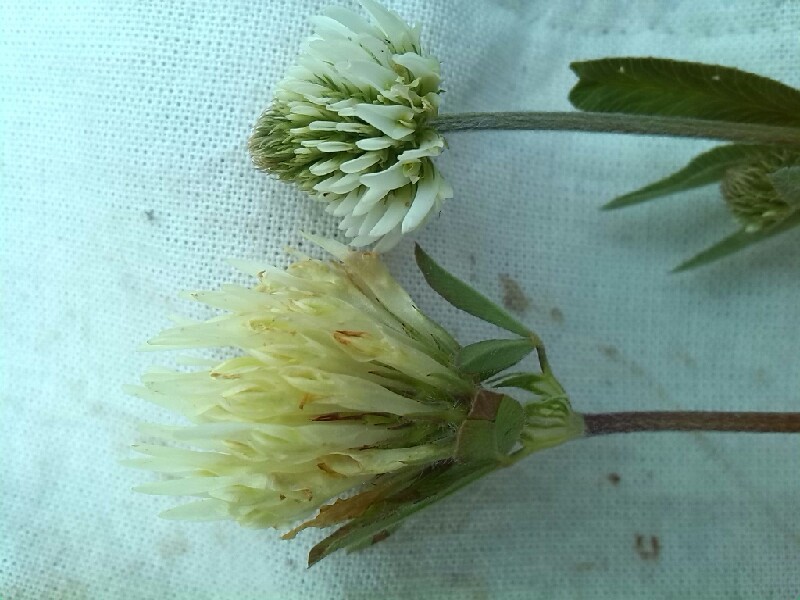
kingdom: Plantae
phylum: Tracheophyta
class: Magnoliopsida
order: Fabales
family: Fabaceae
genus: Trifolium
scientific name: Trifolium montanum
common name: Mountain clover
